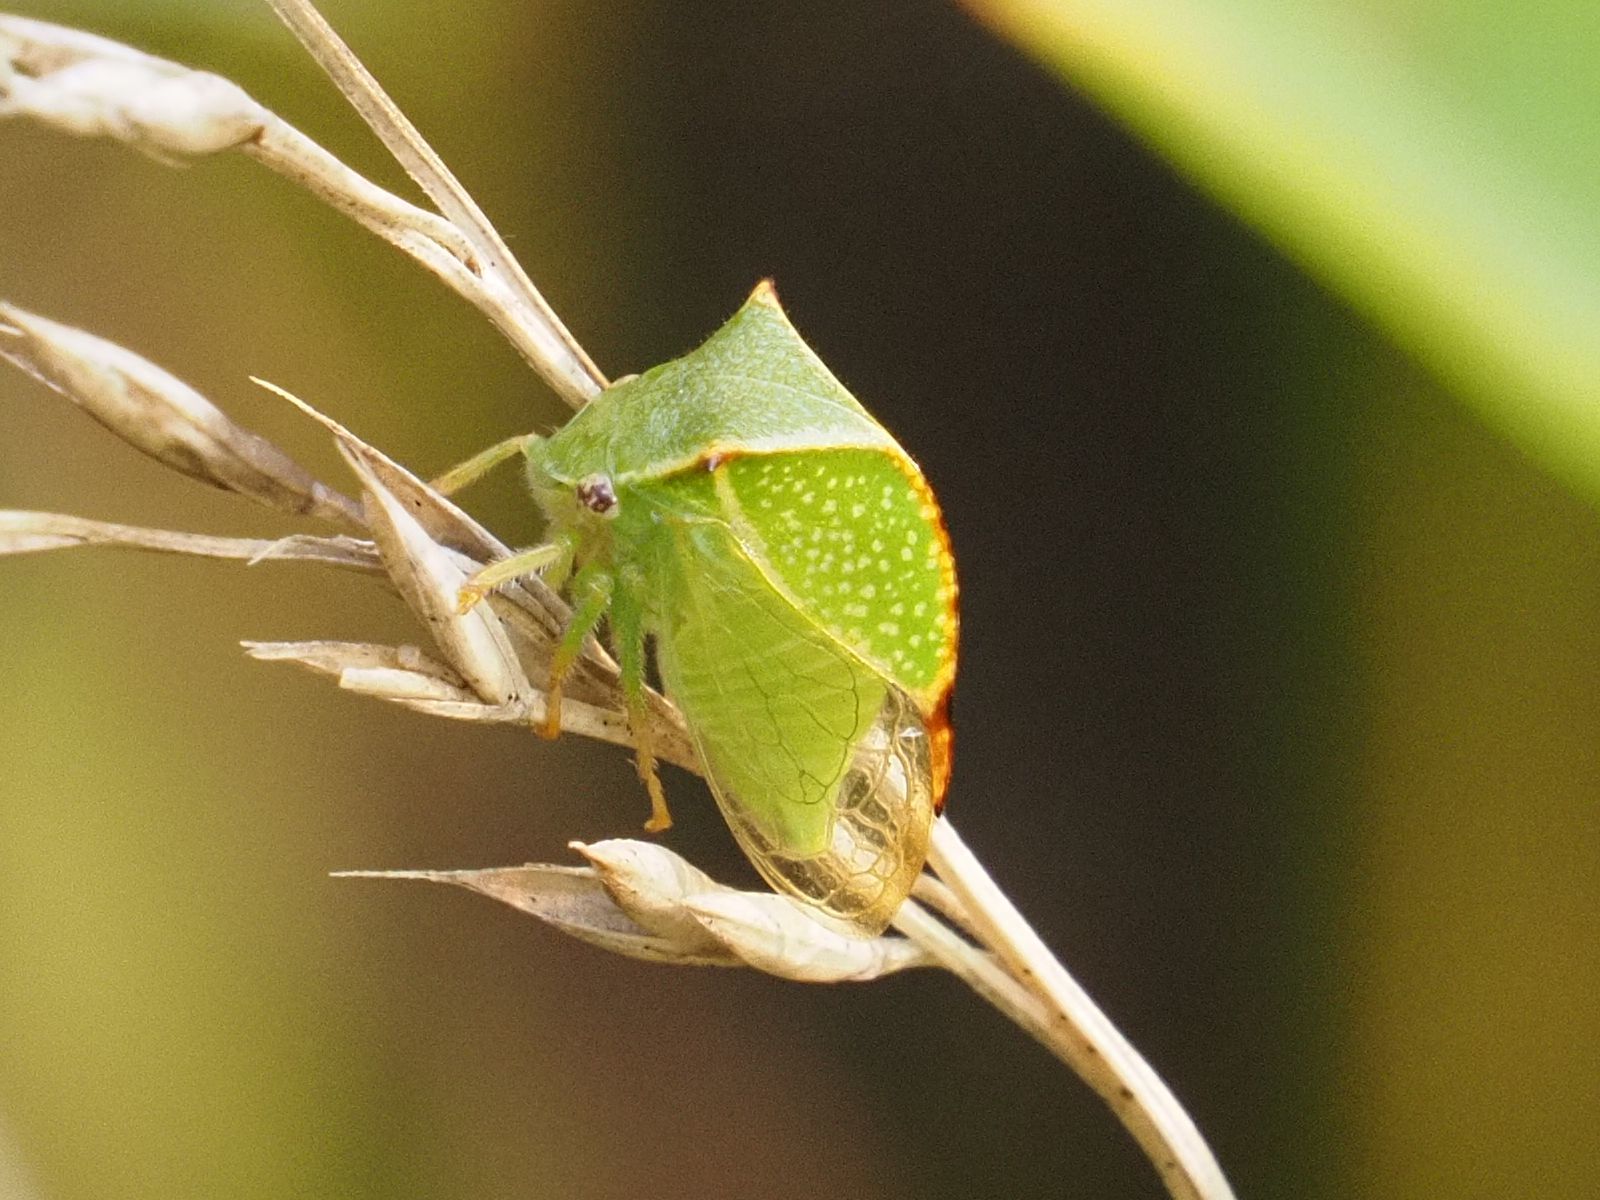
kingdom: Animalia
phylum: Arthropoda
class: Insecta
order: Hemiptera
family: Membracidae
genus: Stictocephala
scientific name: Stictocephala bisonia
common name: American buffalo treehopper
